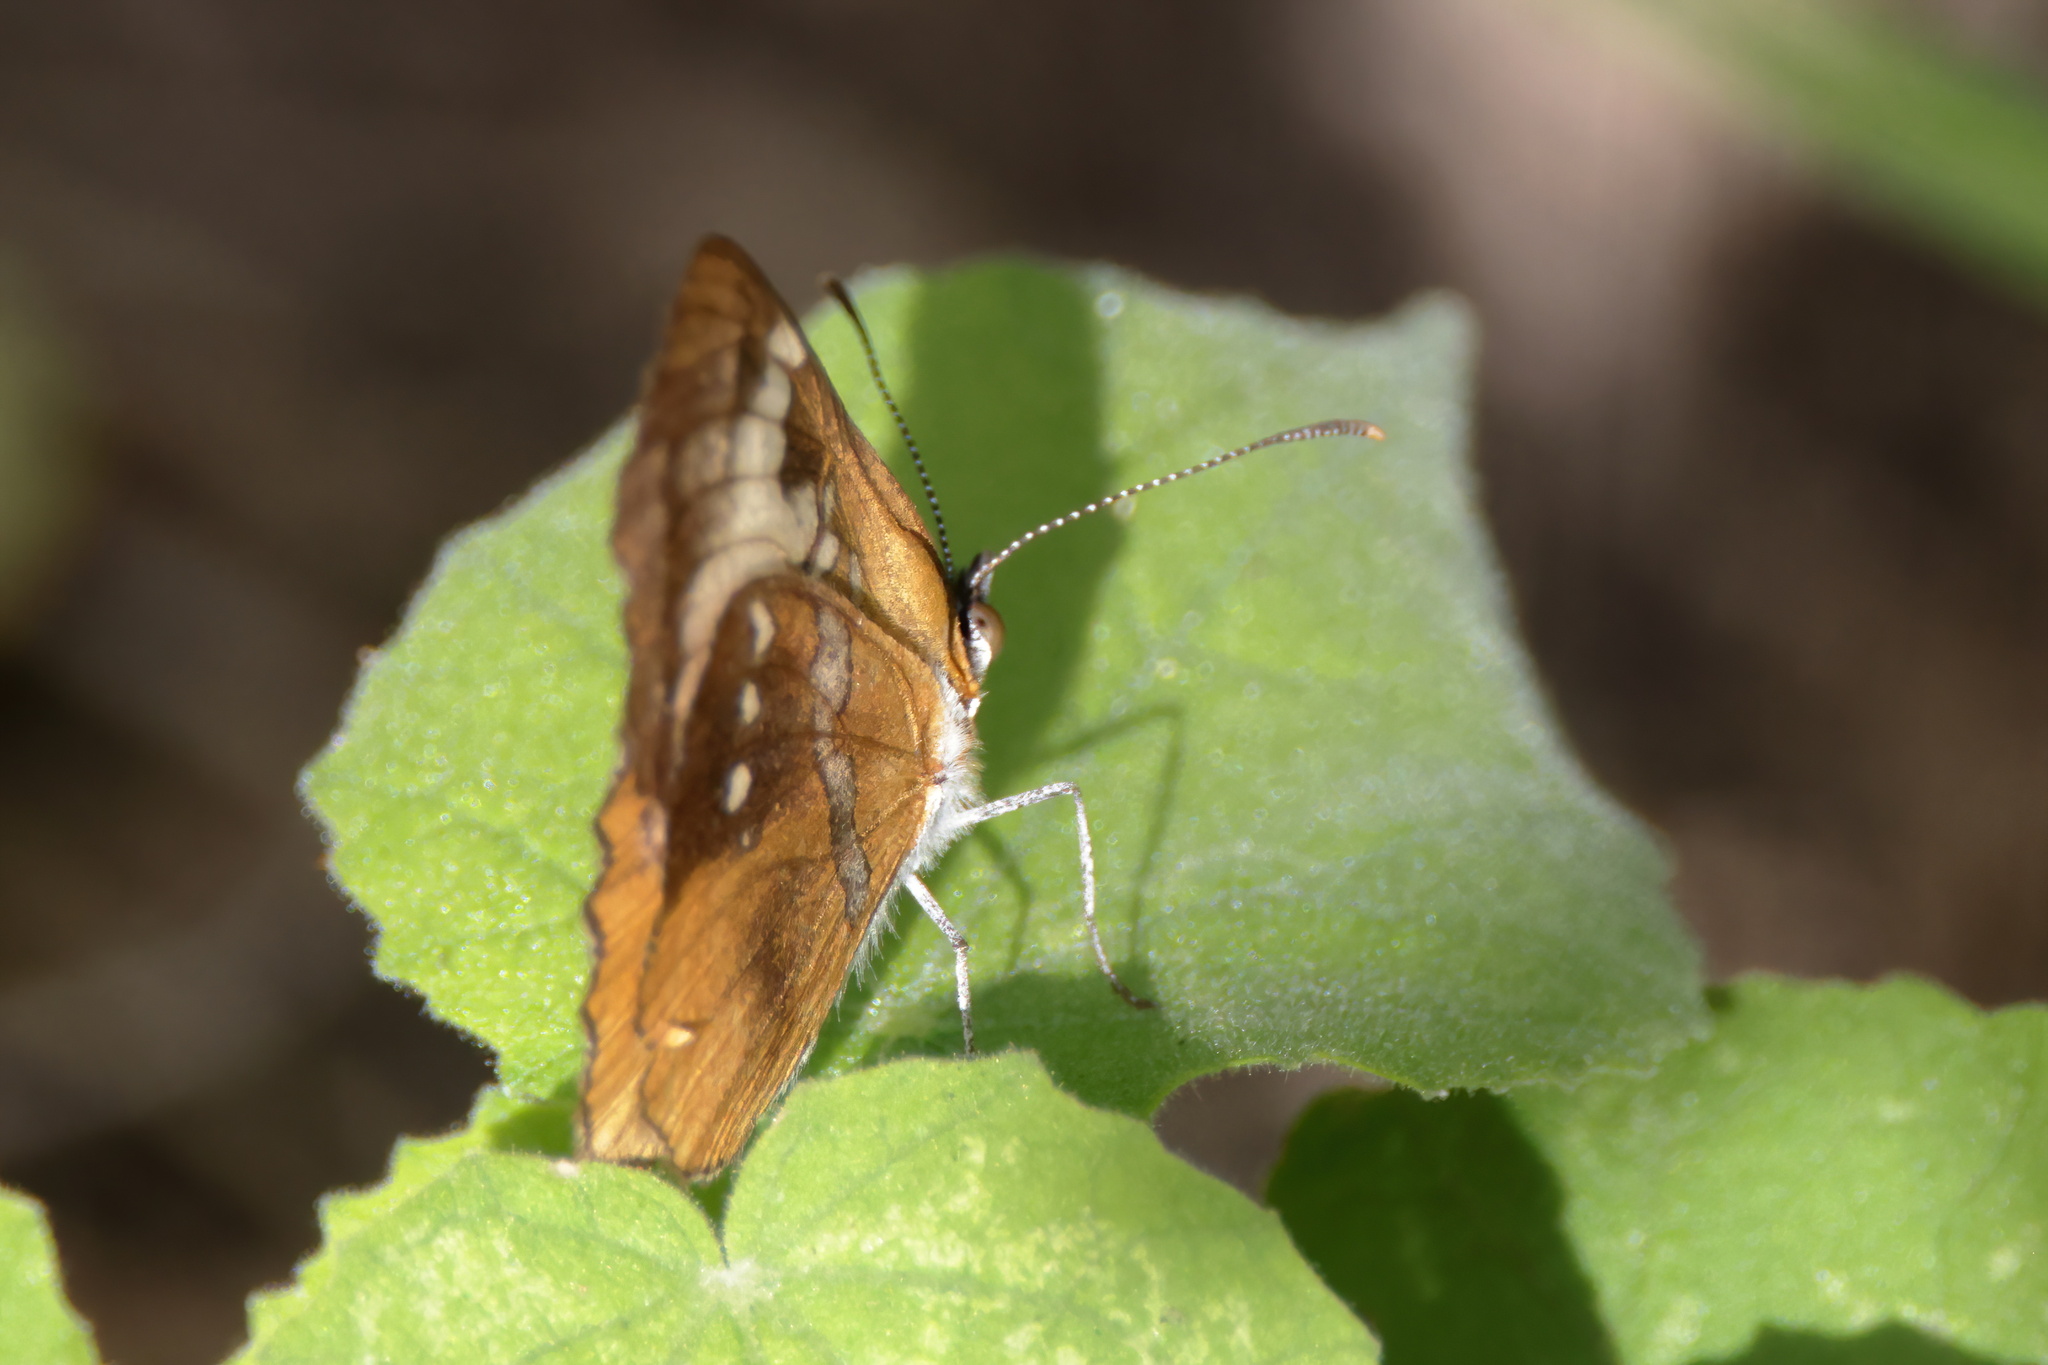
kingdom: Animalia
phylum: Arthropoda
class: Insecta
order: Lepidoptera
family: Nymphalidae
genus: Mestra
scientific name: Mestra amymone
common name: Common mestra
